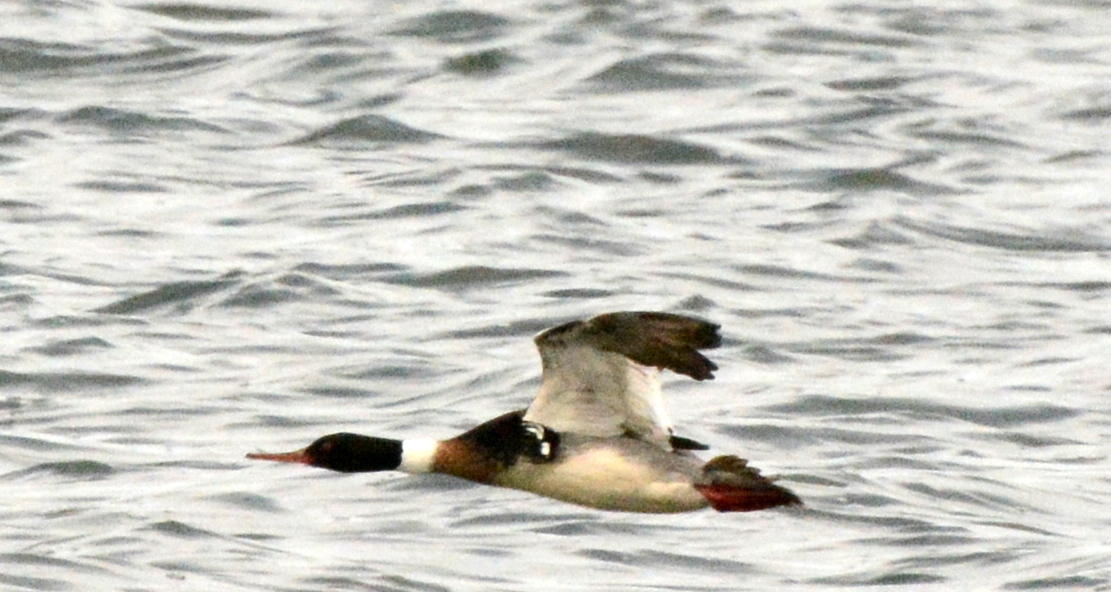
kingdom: Animalia
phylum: Chordata
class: Aves
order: Anseriformes
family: Anatidae
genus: Mergus
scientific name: Mergus serrator
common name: Red-breasted merganser
